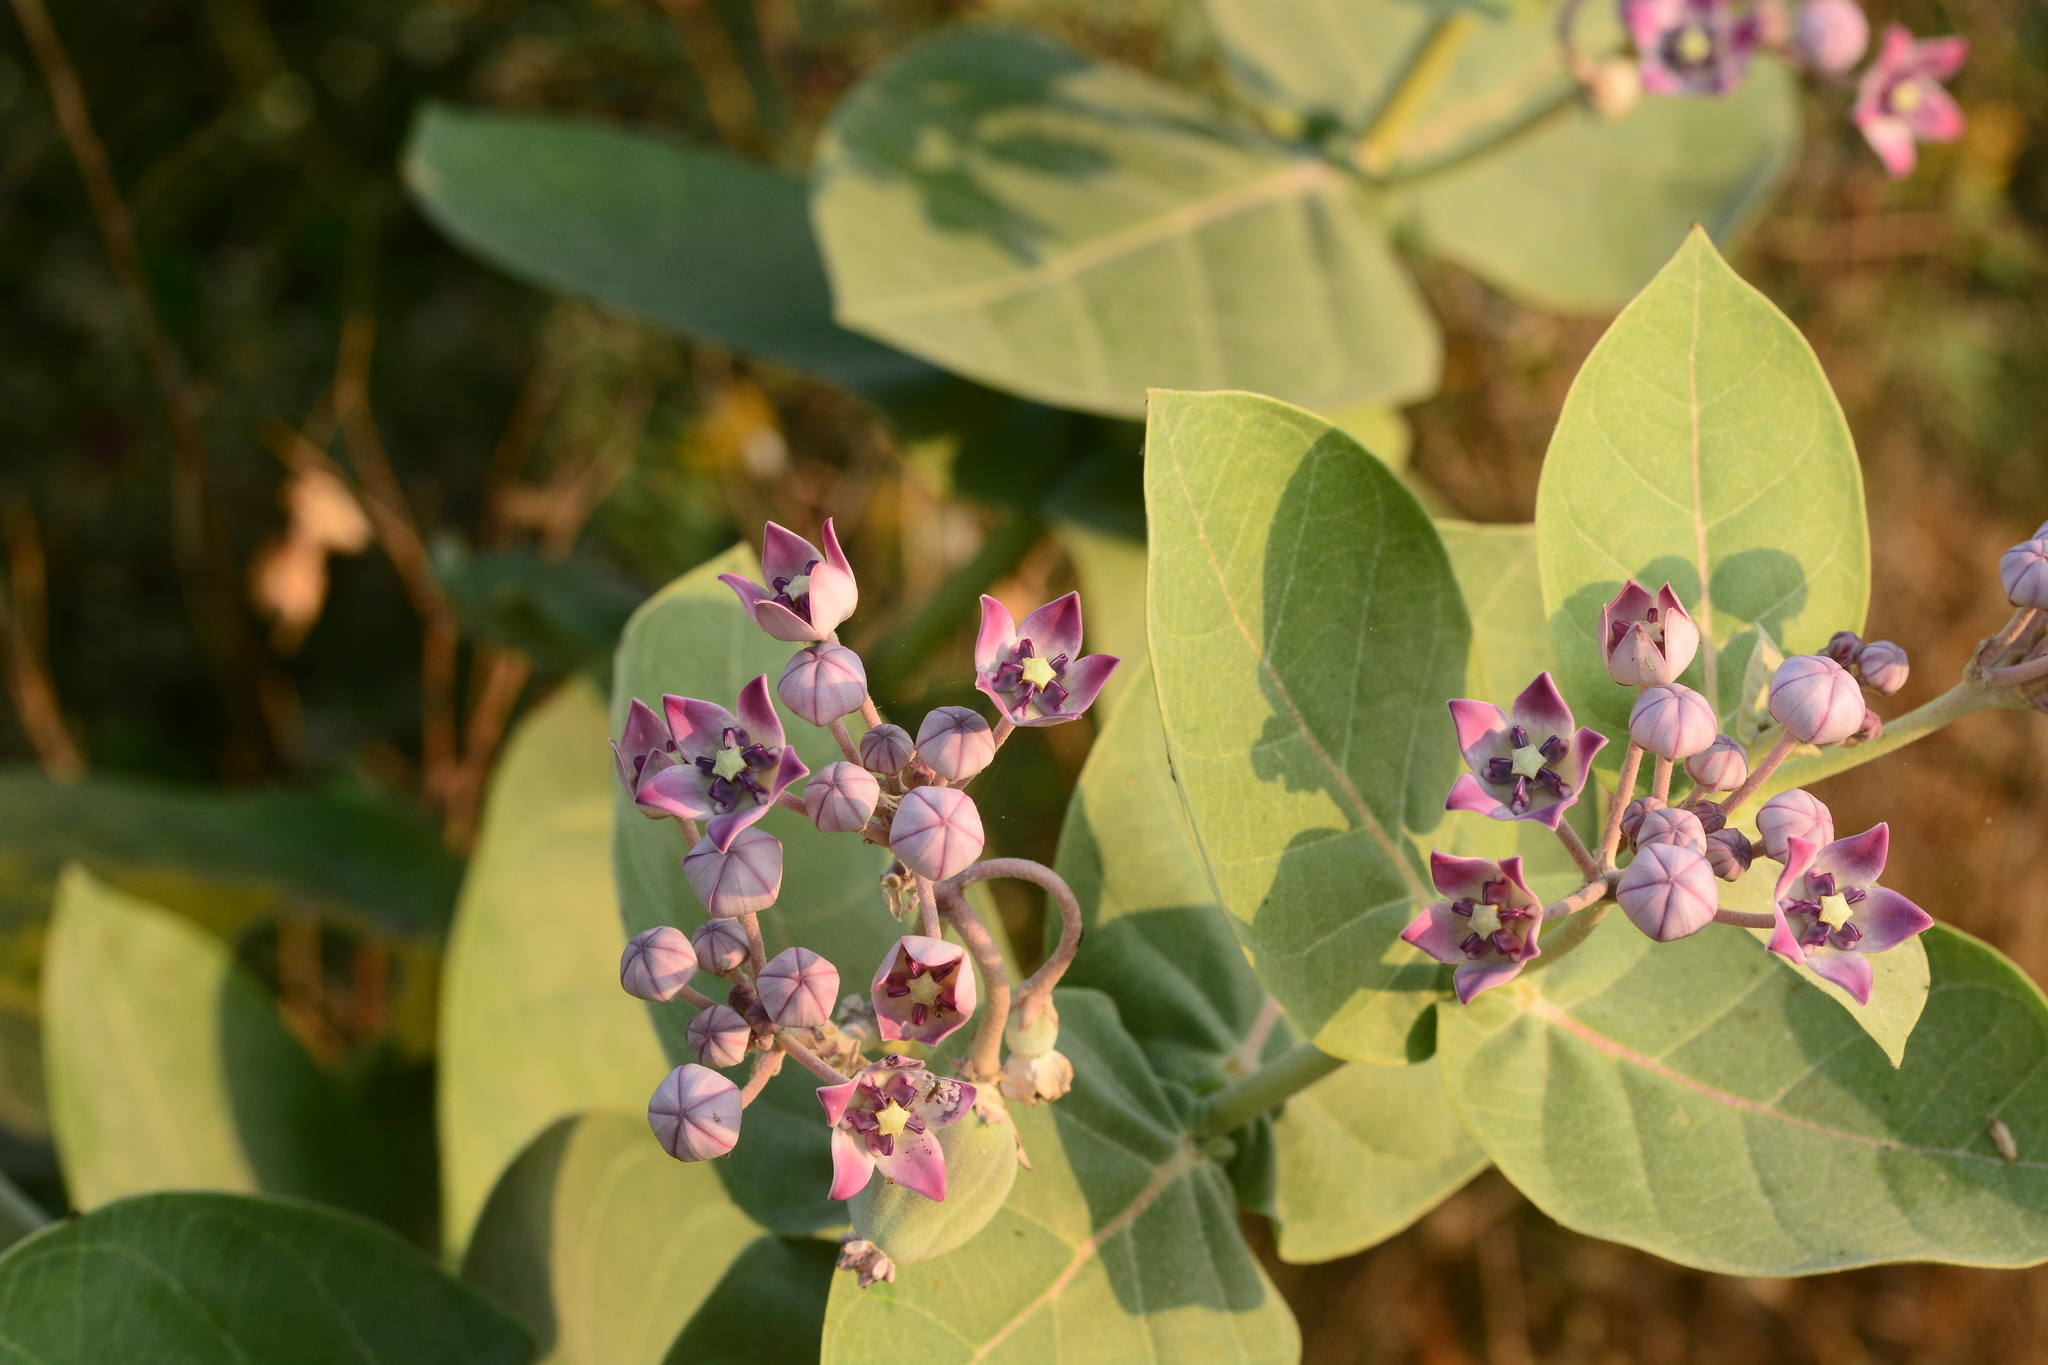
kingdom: Plantae
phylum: Tracheophyta
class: Magnoliopsida
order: Gentianales
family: Apocynaceae
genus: Calotropis
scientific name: Calotropis procera
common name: Roostertree
